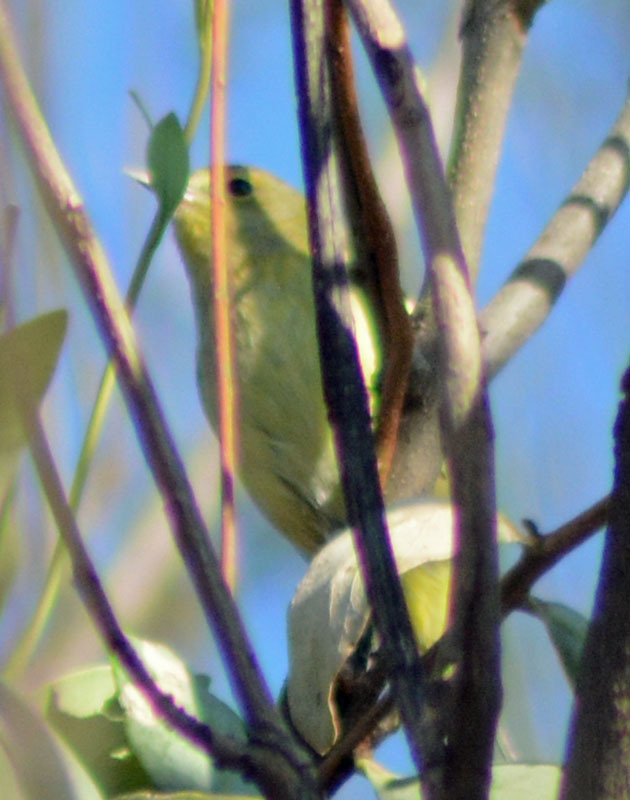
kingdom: Animalia
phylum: Chordata
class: Aves
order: Passeriformes
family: Parulidae
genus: Leiothlypis
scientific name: Leiothlypis celata
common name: Orange-crowned warbler
